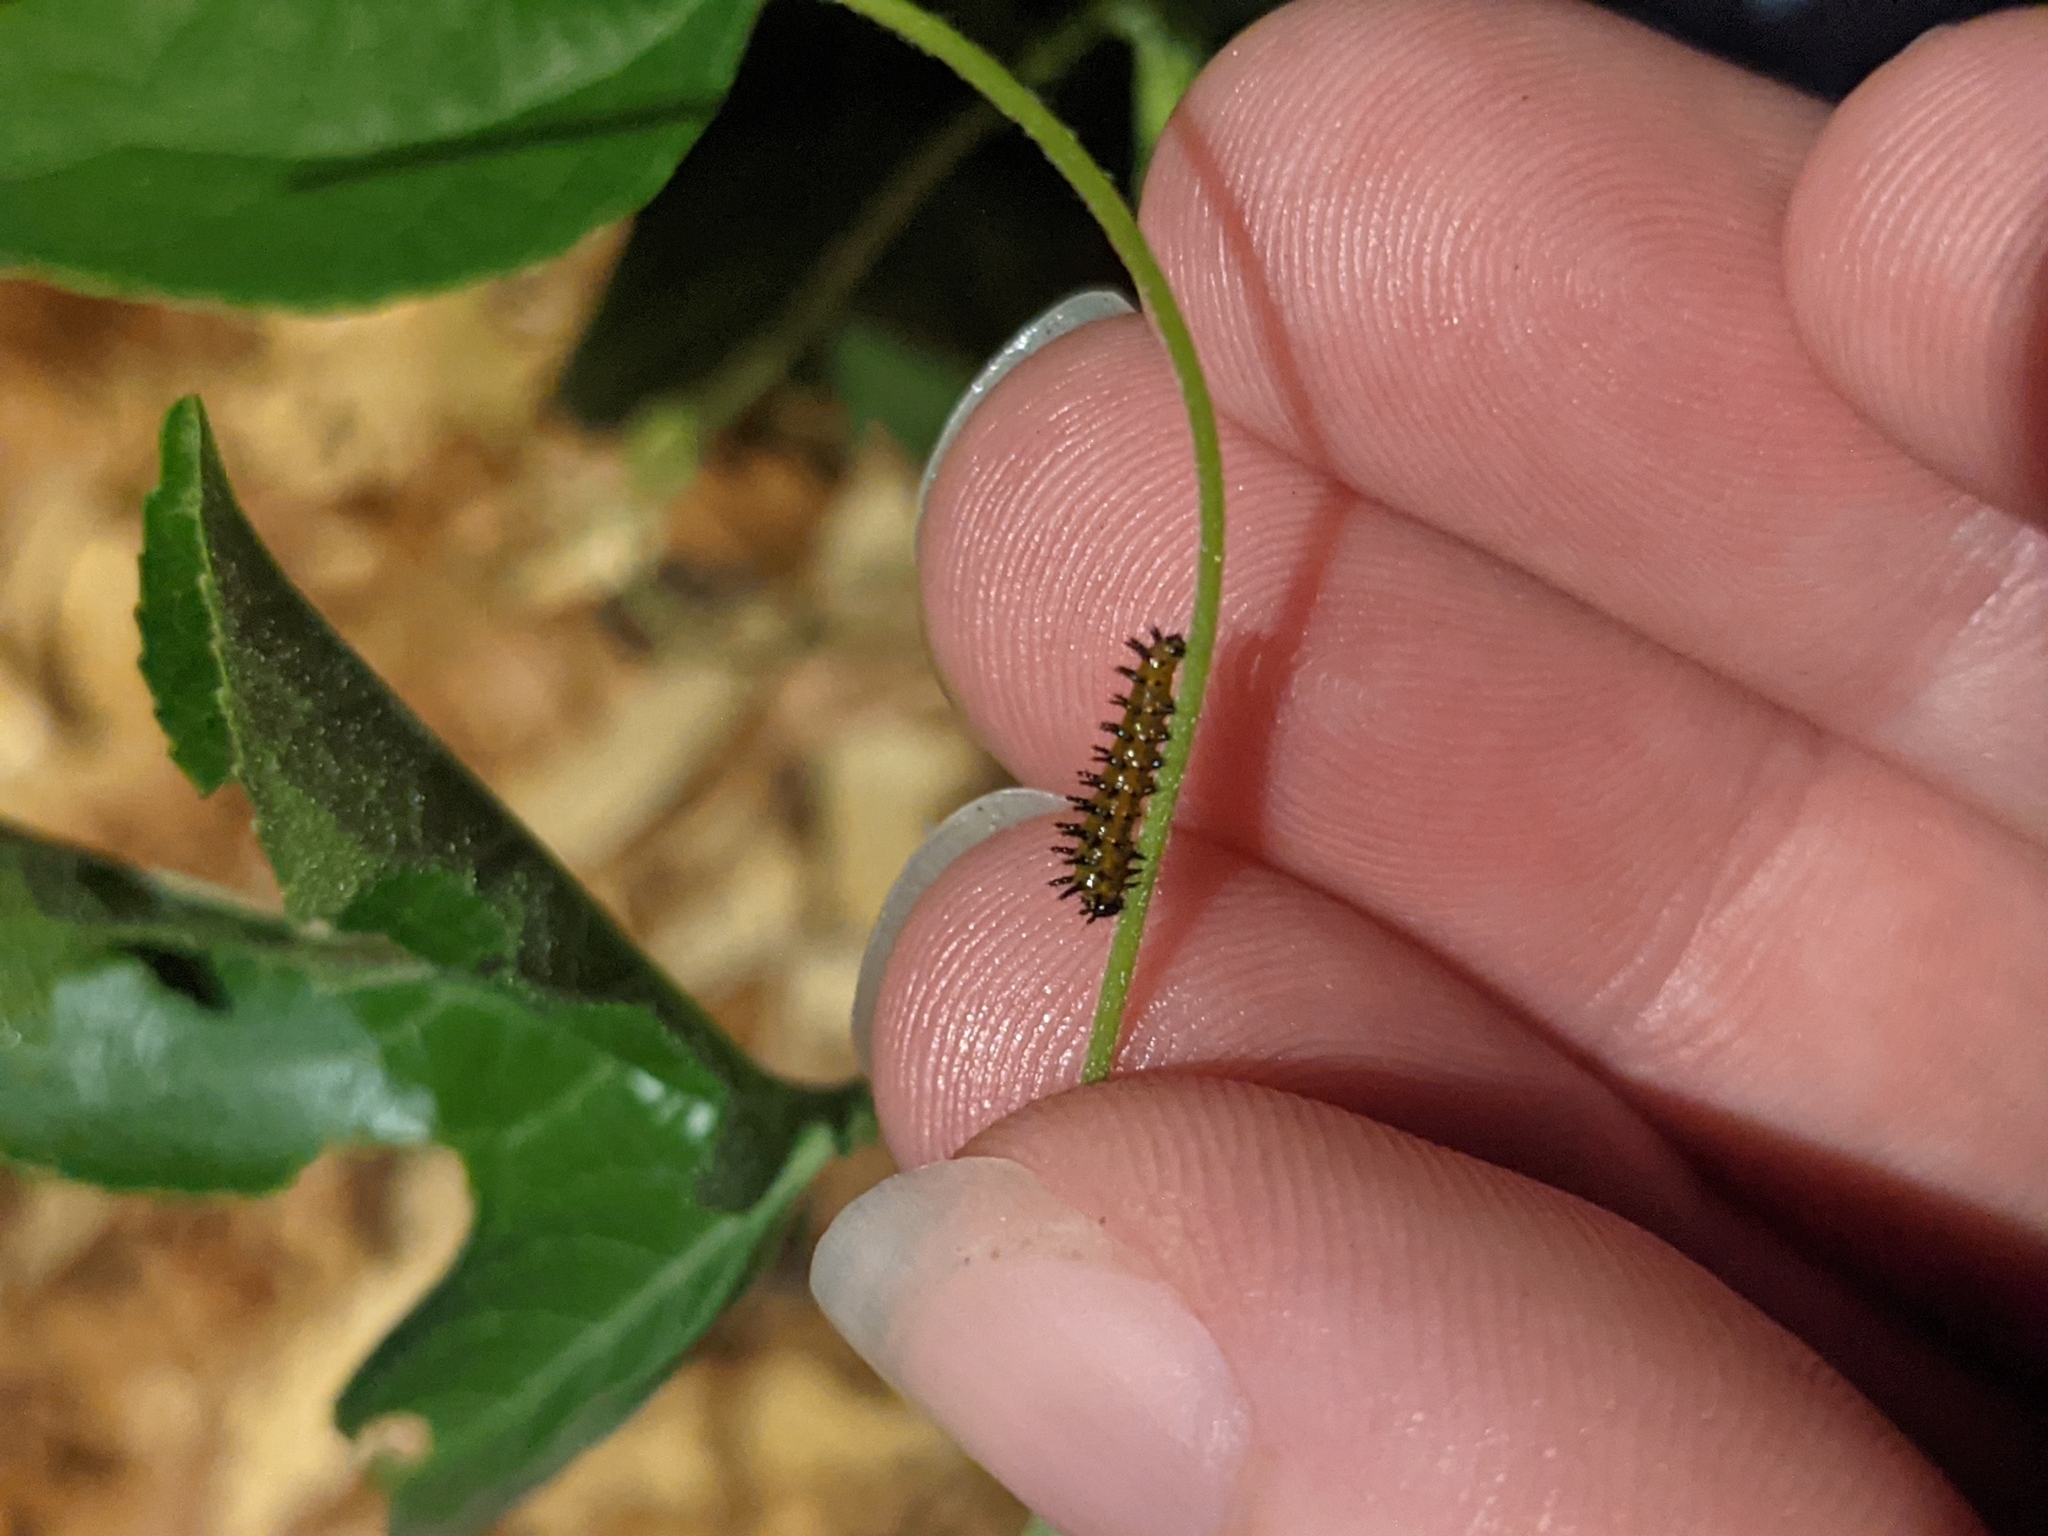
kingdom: Animalia
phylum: Arthropoda
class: Insecta
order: Lepidoptera
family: Nymphalidae
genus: Dione
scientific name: Dione vanillae
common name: Gulf fritillary
